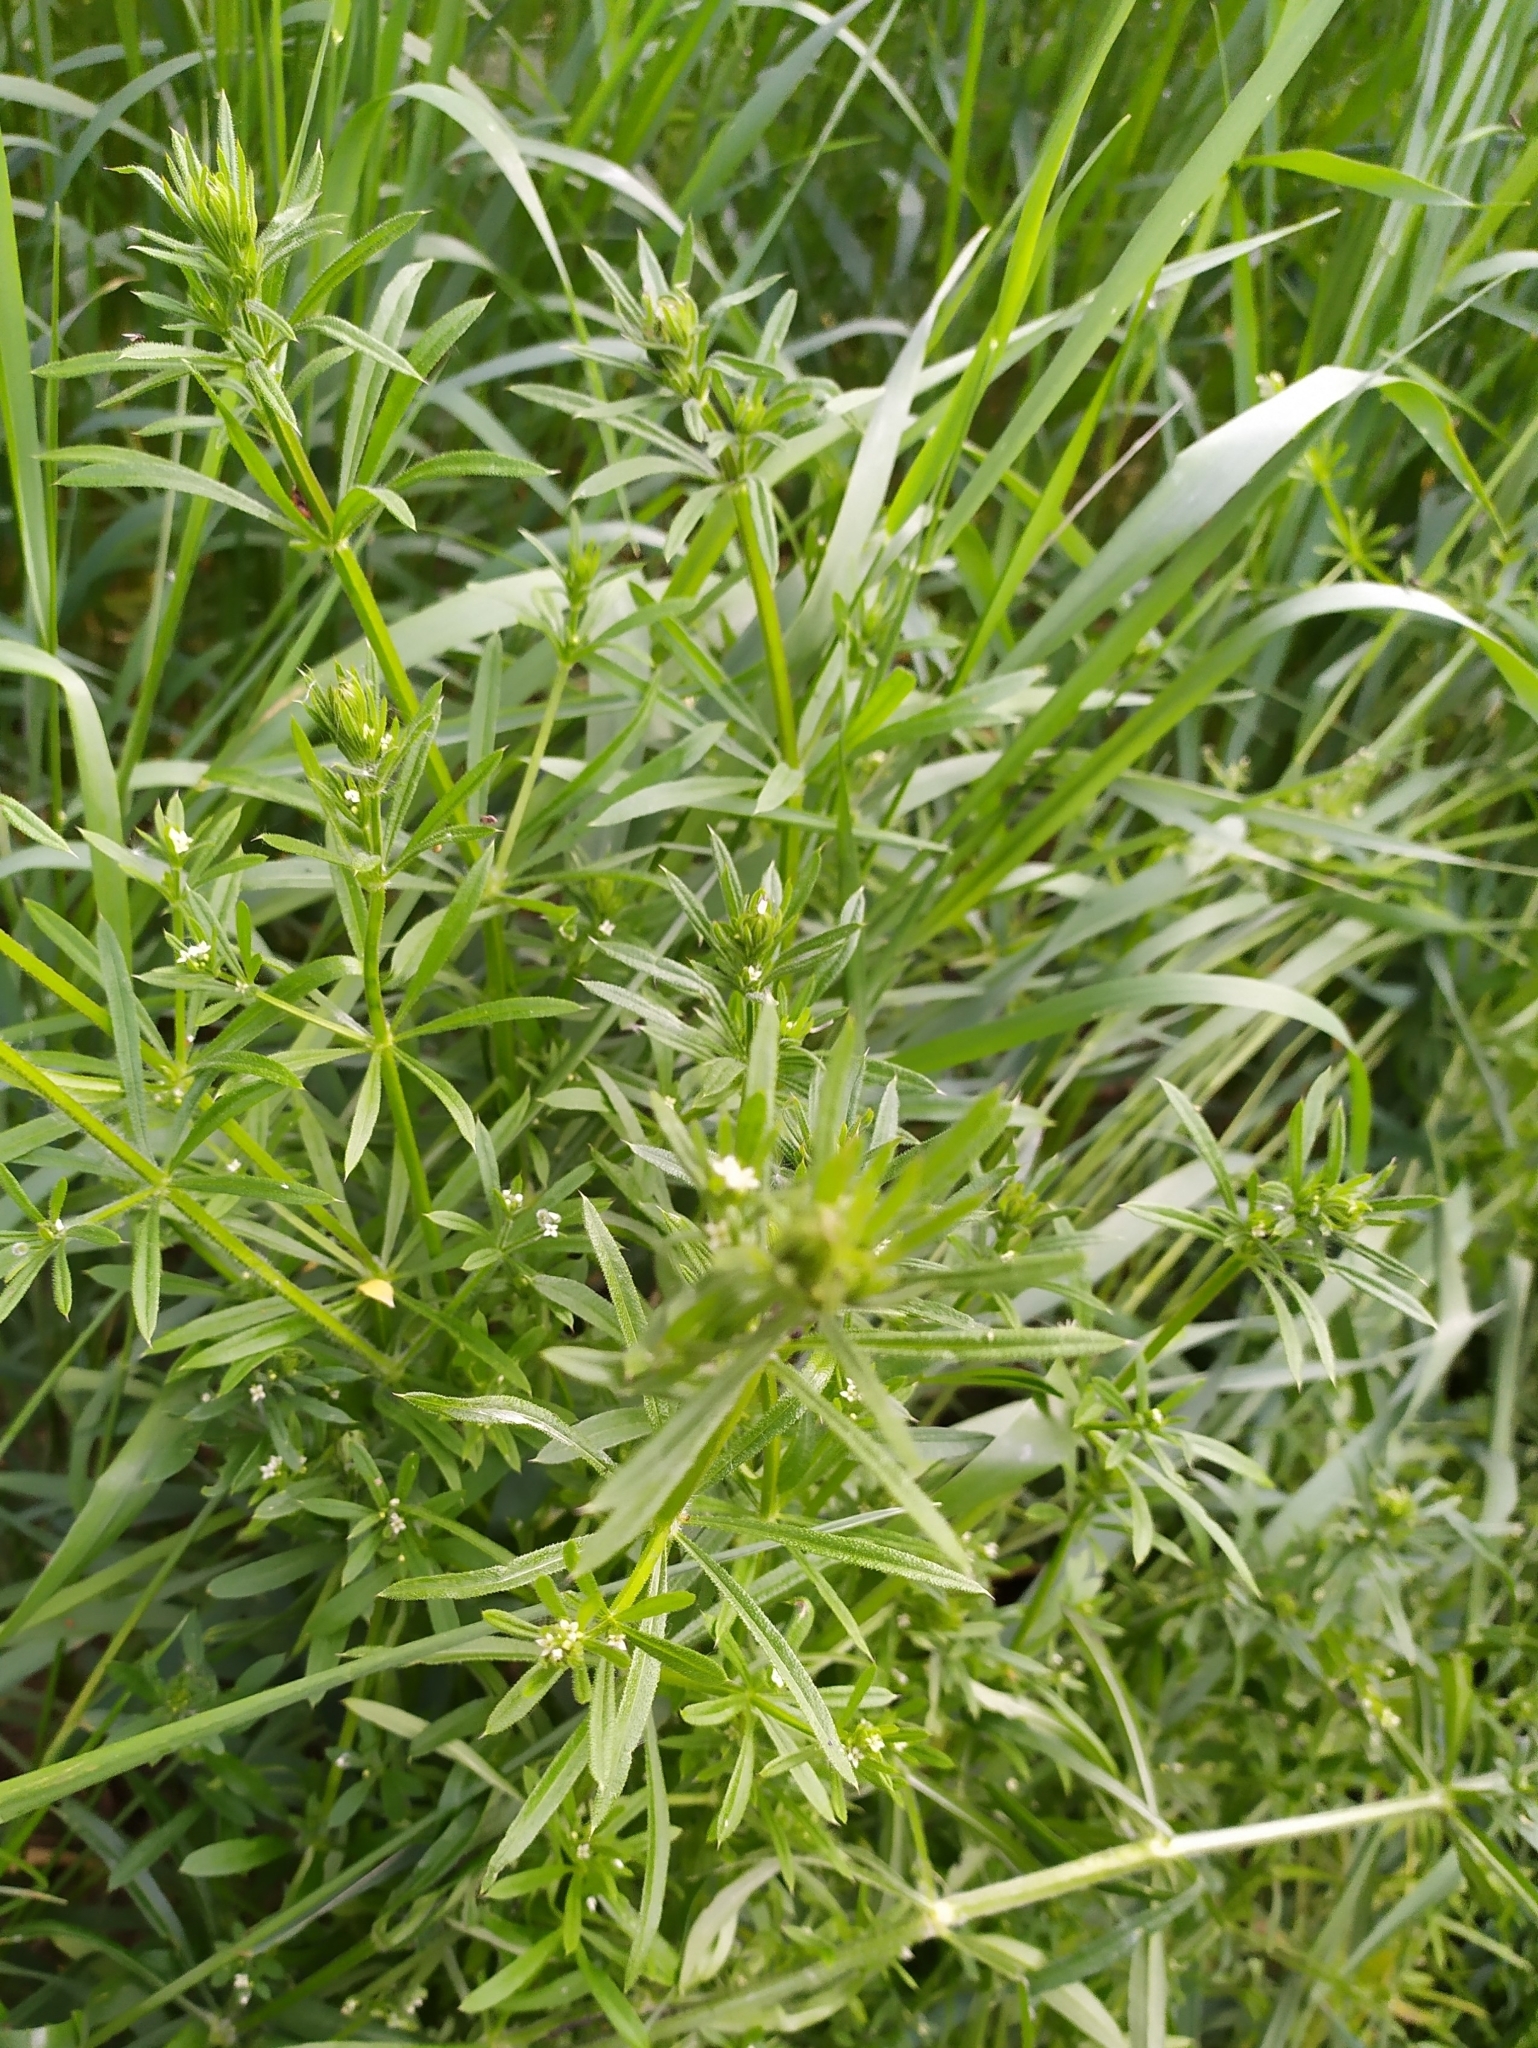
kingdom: Plantae
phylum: Tracheophyta
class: Magnoliopsida
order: Gentianales
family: Rubiaceae
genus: Galium
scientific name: Galium aparine
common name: Cleavers
